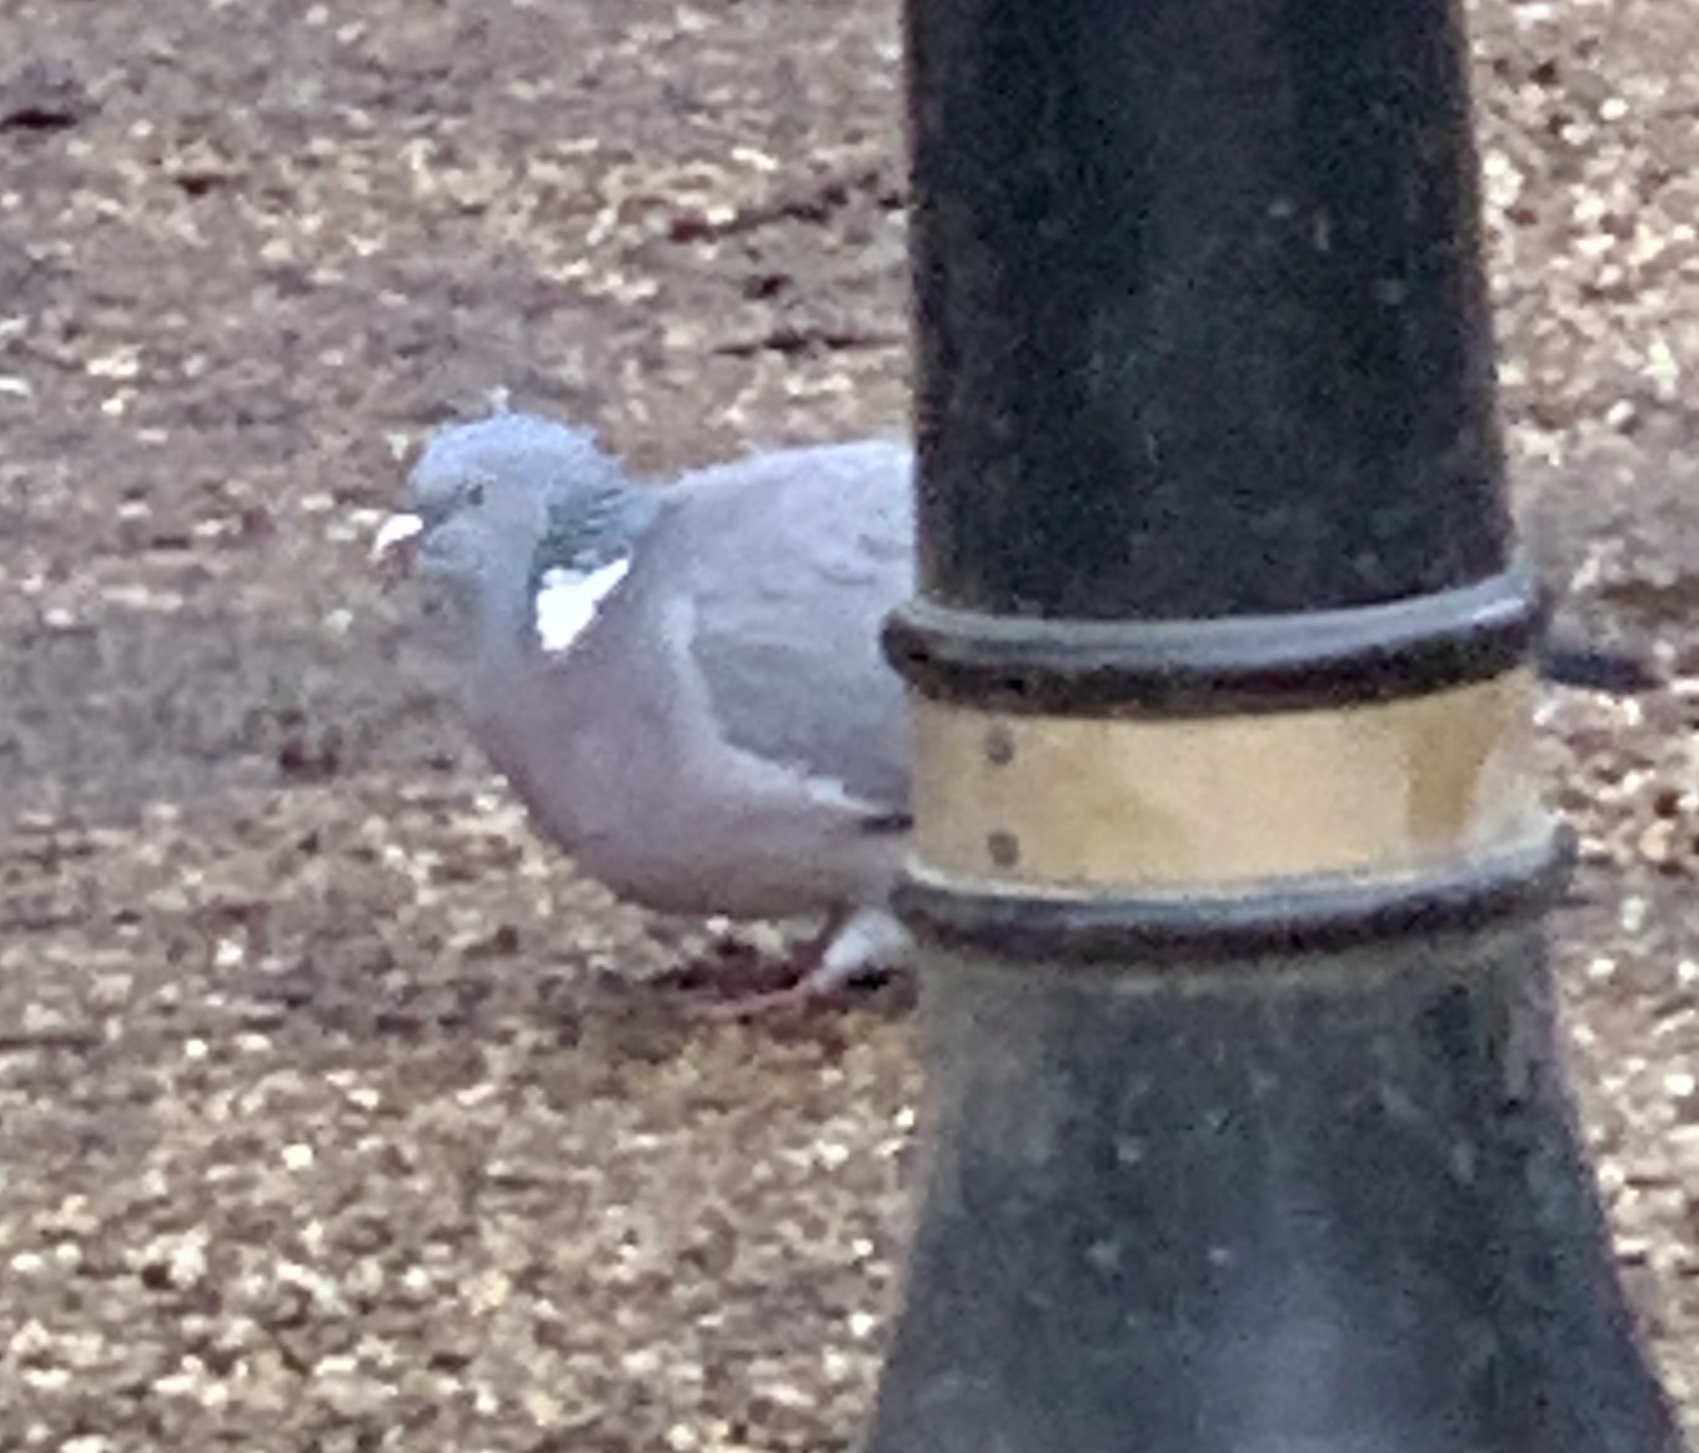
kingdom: Animalia
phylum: Chordata
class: Aves
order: Columbiformes
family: Columbidae
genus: Columba
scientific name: Columba palumbus
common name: Common wood pigeon
